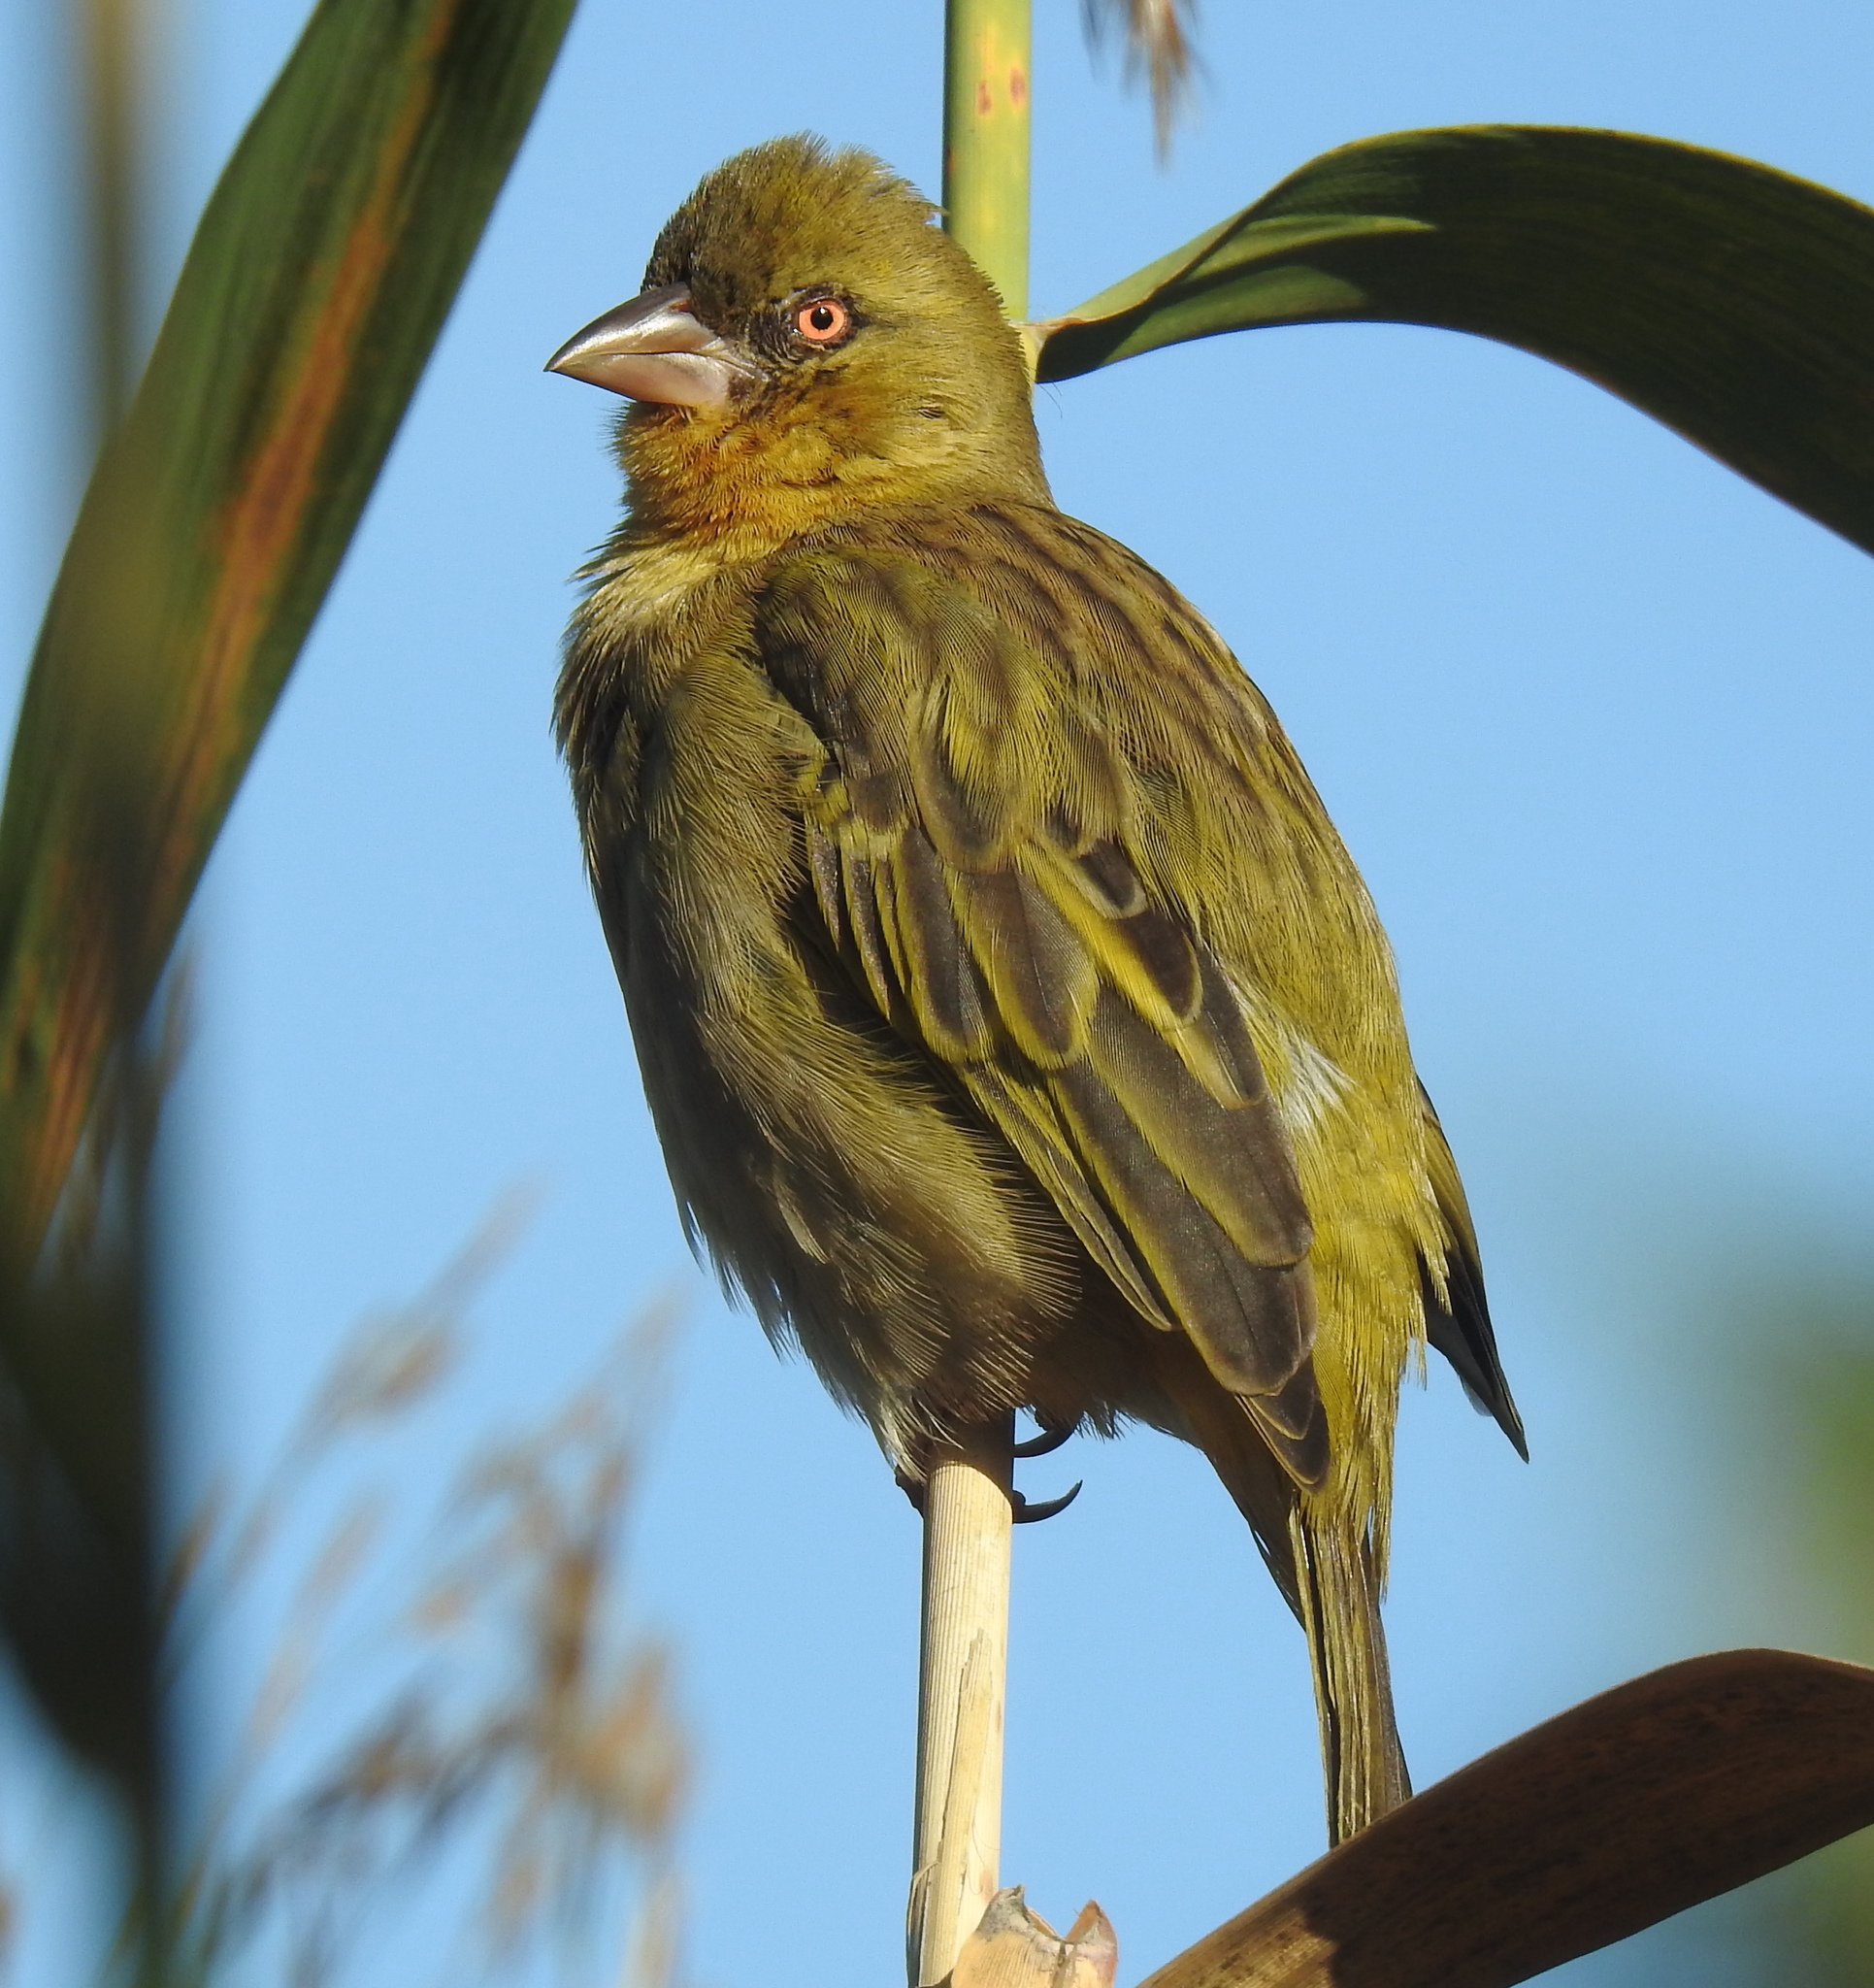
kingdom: Animalia
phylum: Chordata
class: Aves
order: Passeriformes
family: Ploceidae
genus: Ploceus
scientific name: Ploceus capensis
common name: Cape weaver
